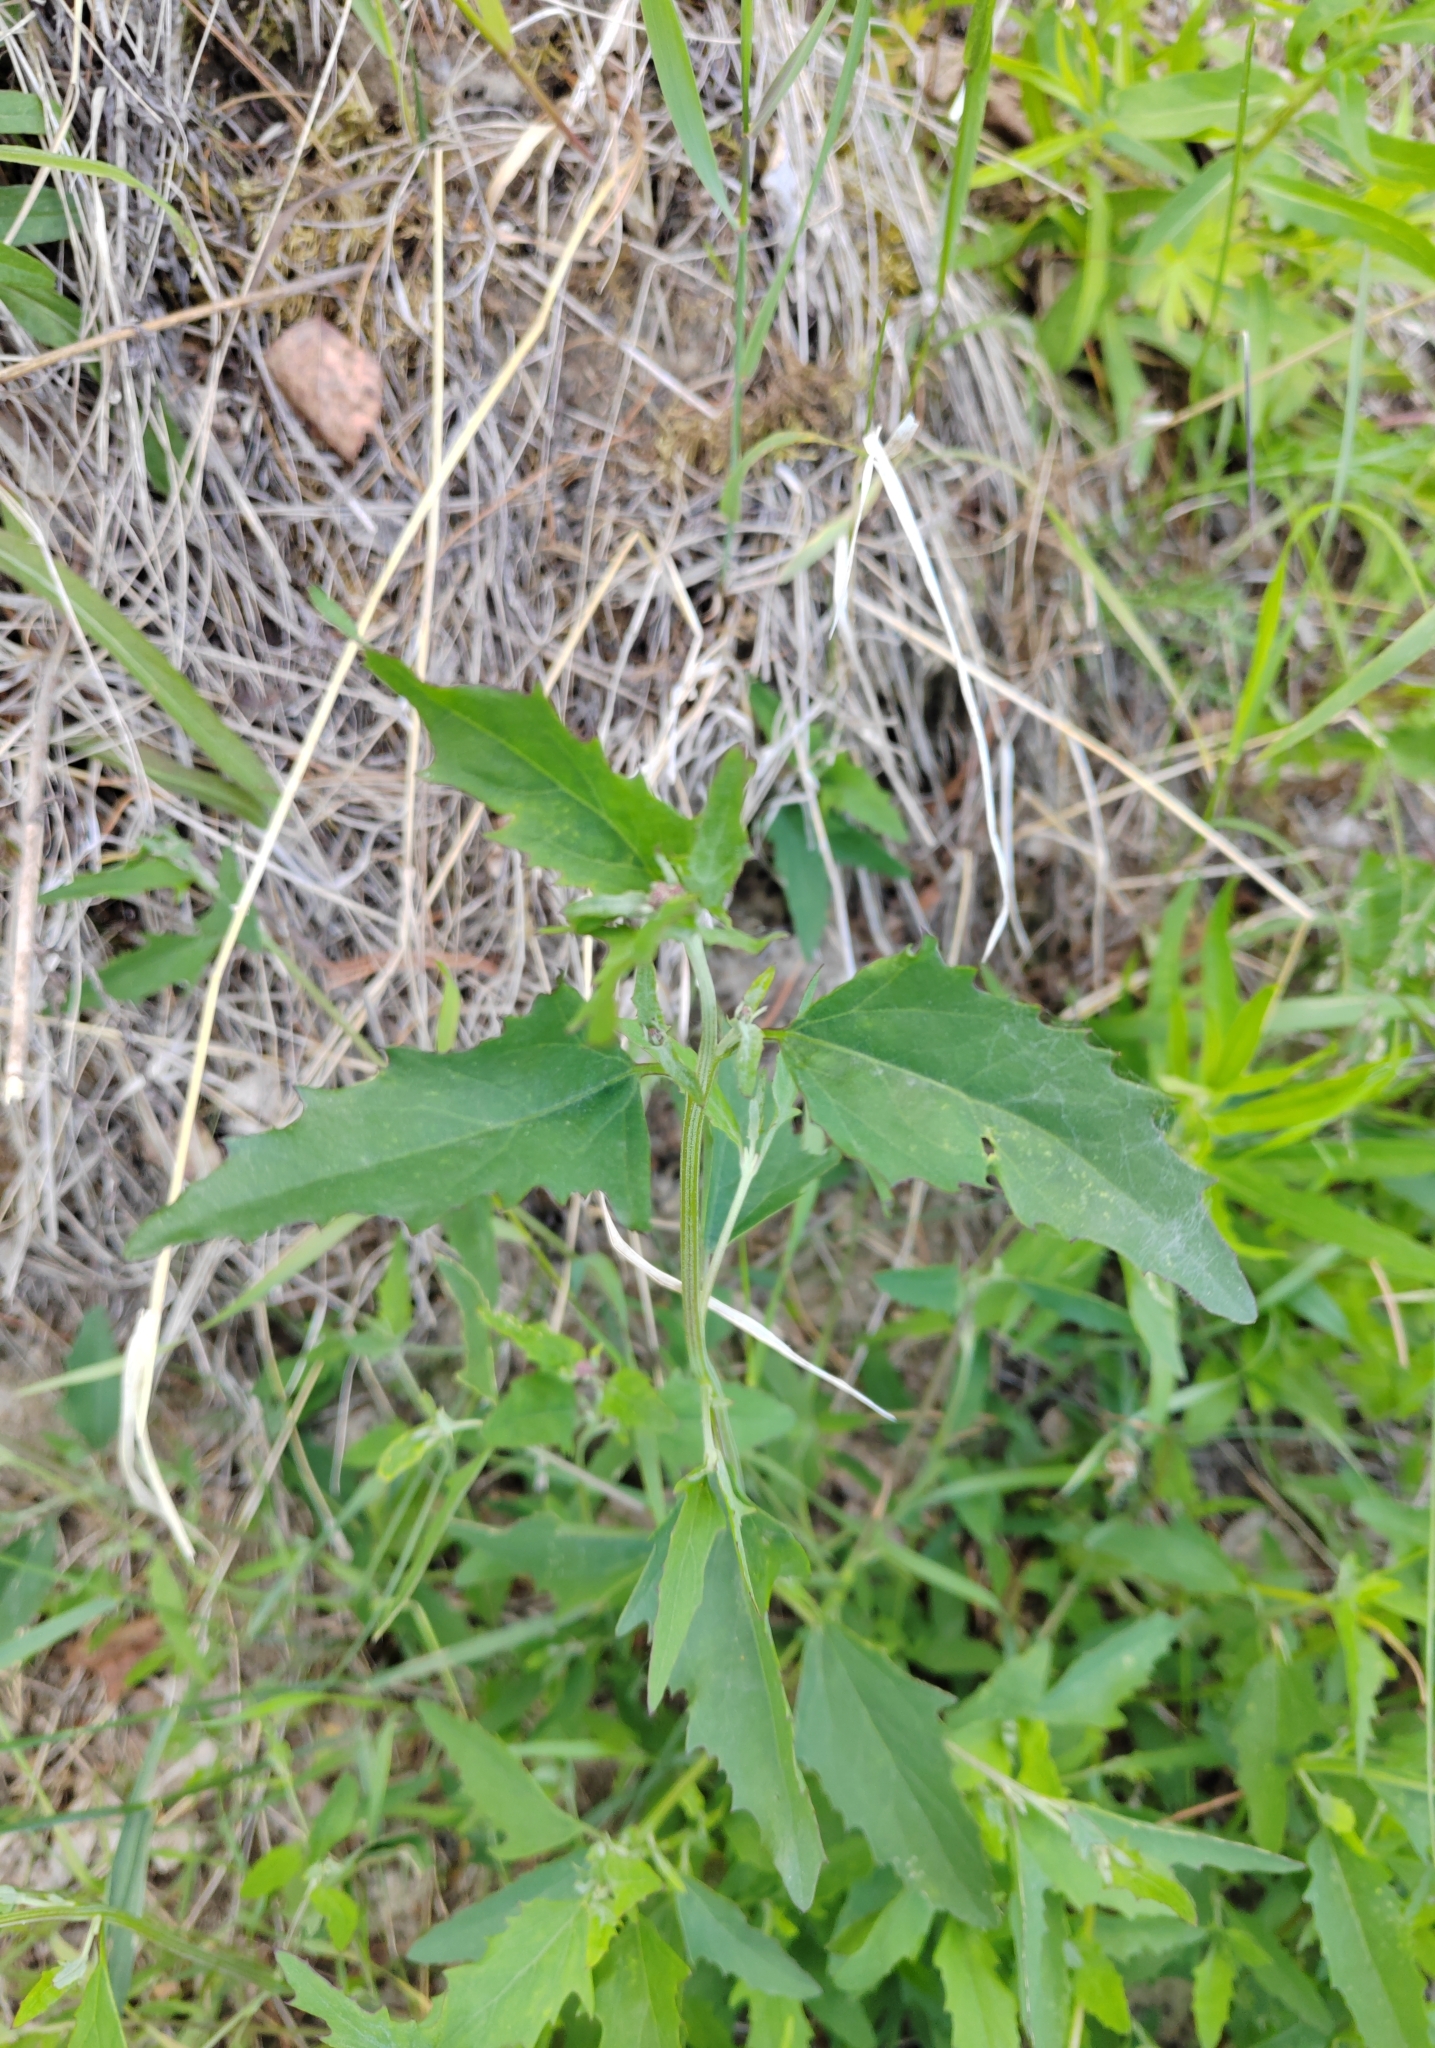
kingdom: Plantae
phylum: Tracheophyta
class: Magnoliopsida
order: Caryophyllales
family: Amaranthaceae
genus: Atriplex
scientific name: Atriplex patula
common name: Common orache
